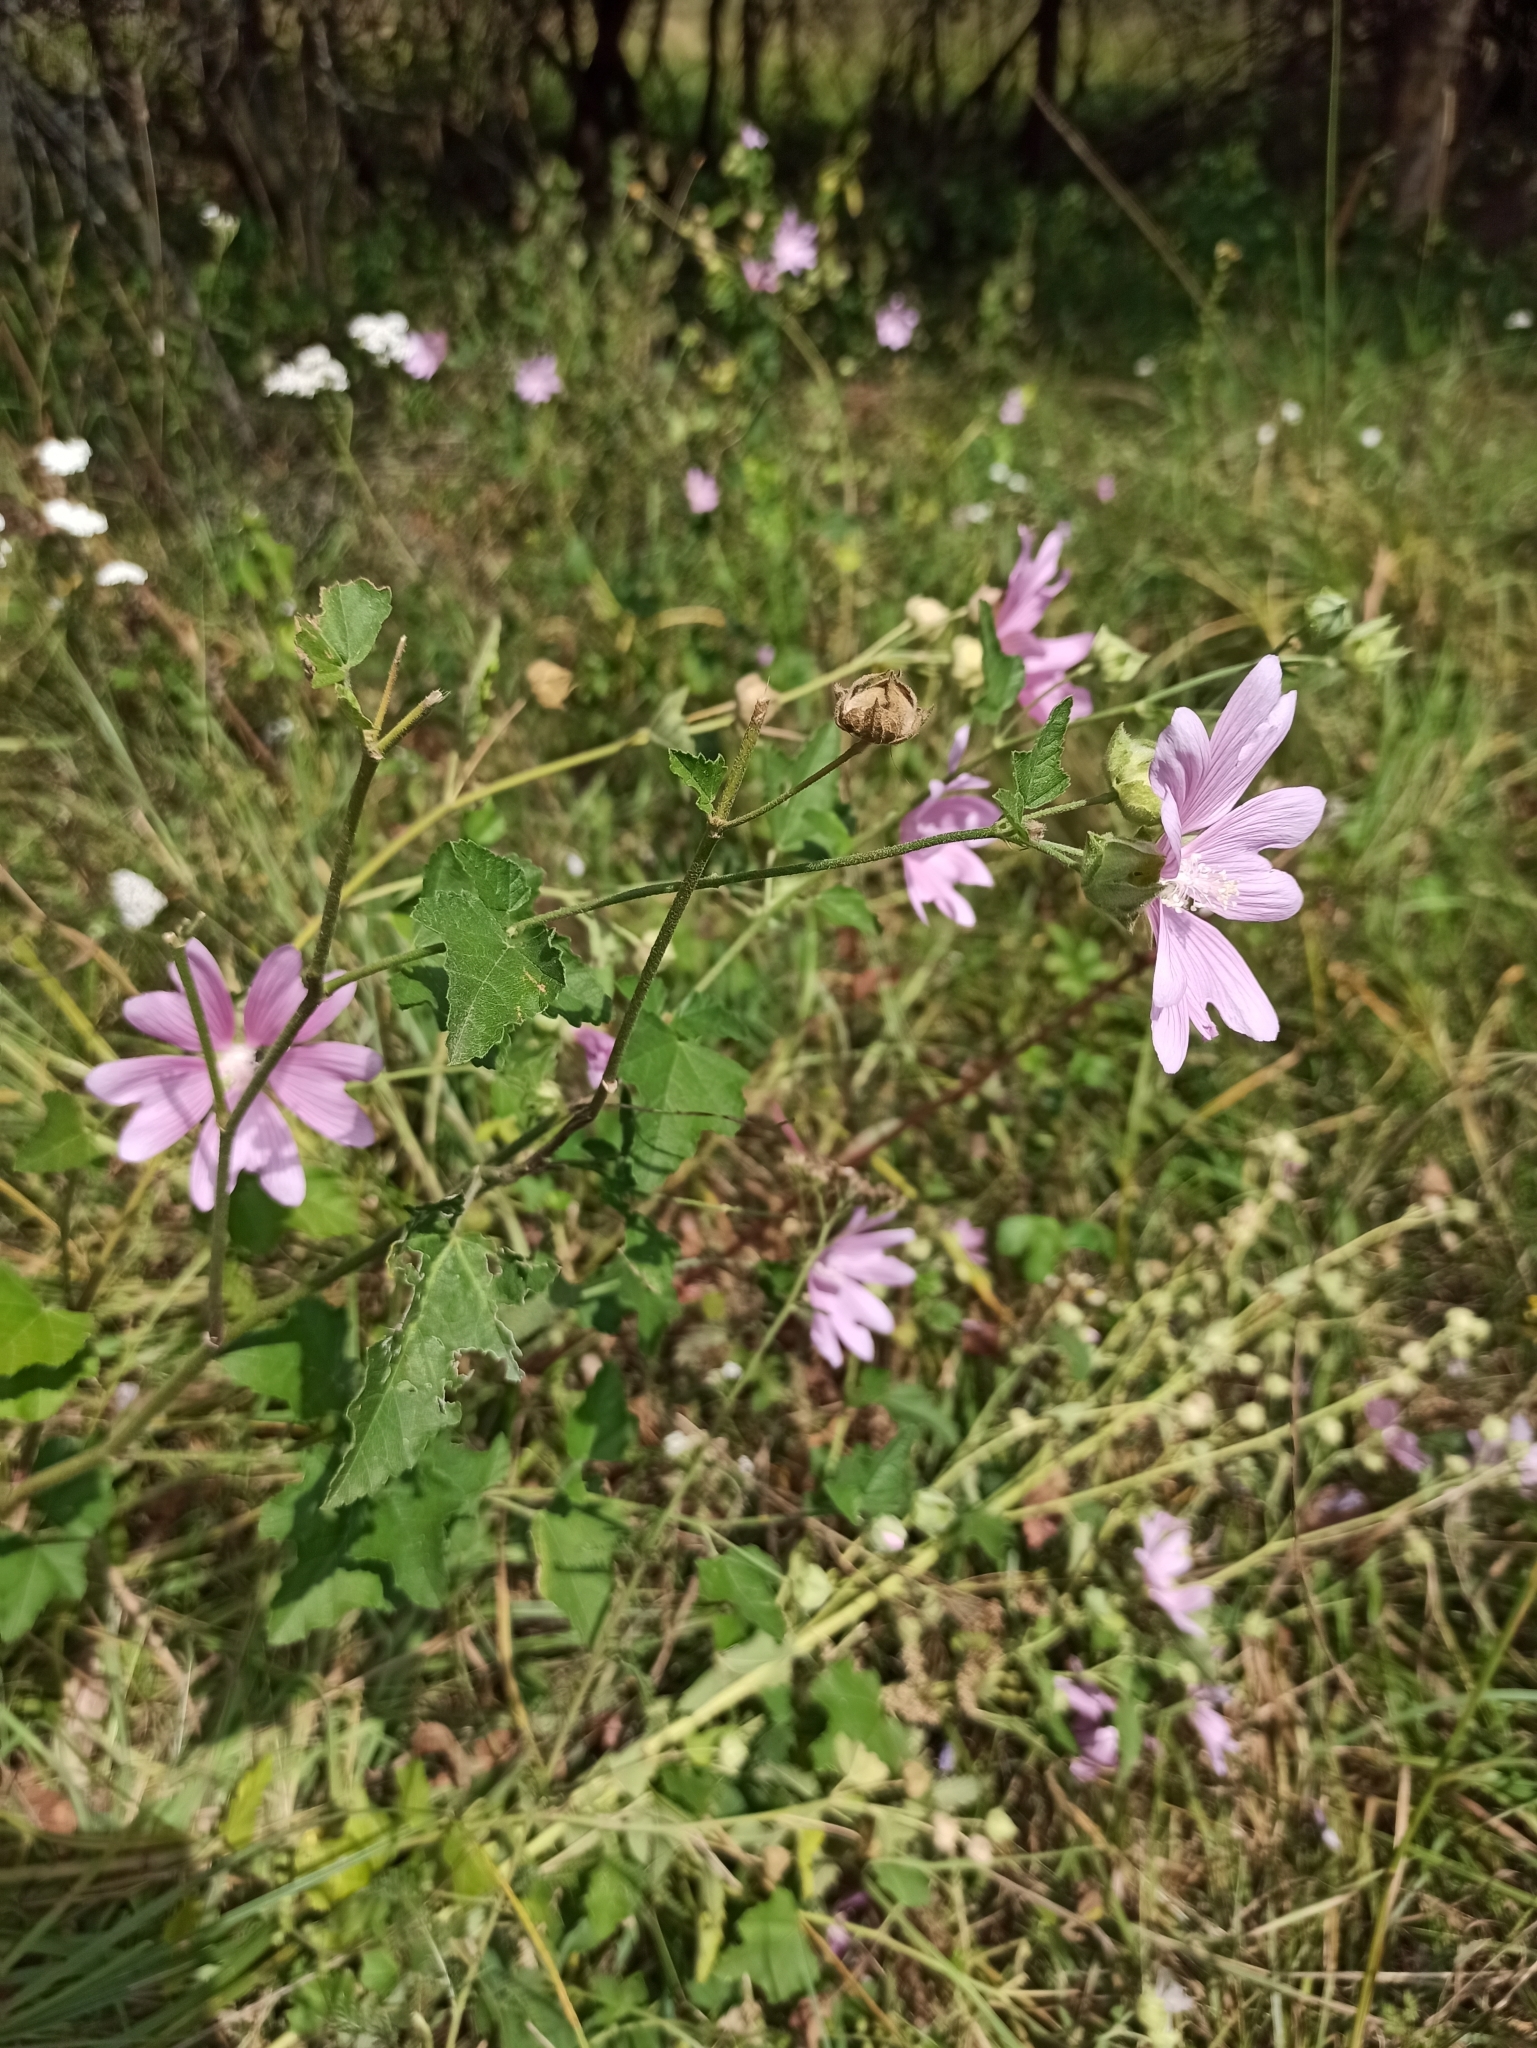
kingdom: Plantae
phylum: Tracheophyta
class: Magnoliopsida
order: Malvales
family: Malvaceae
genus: Malva
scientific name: Malva thuringiaca
